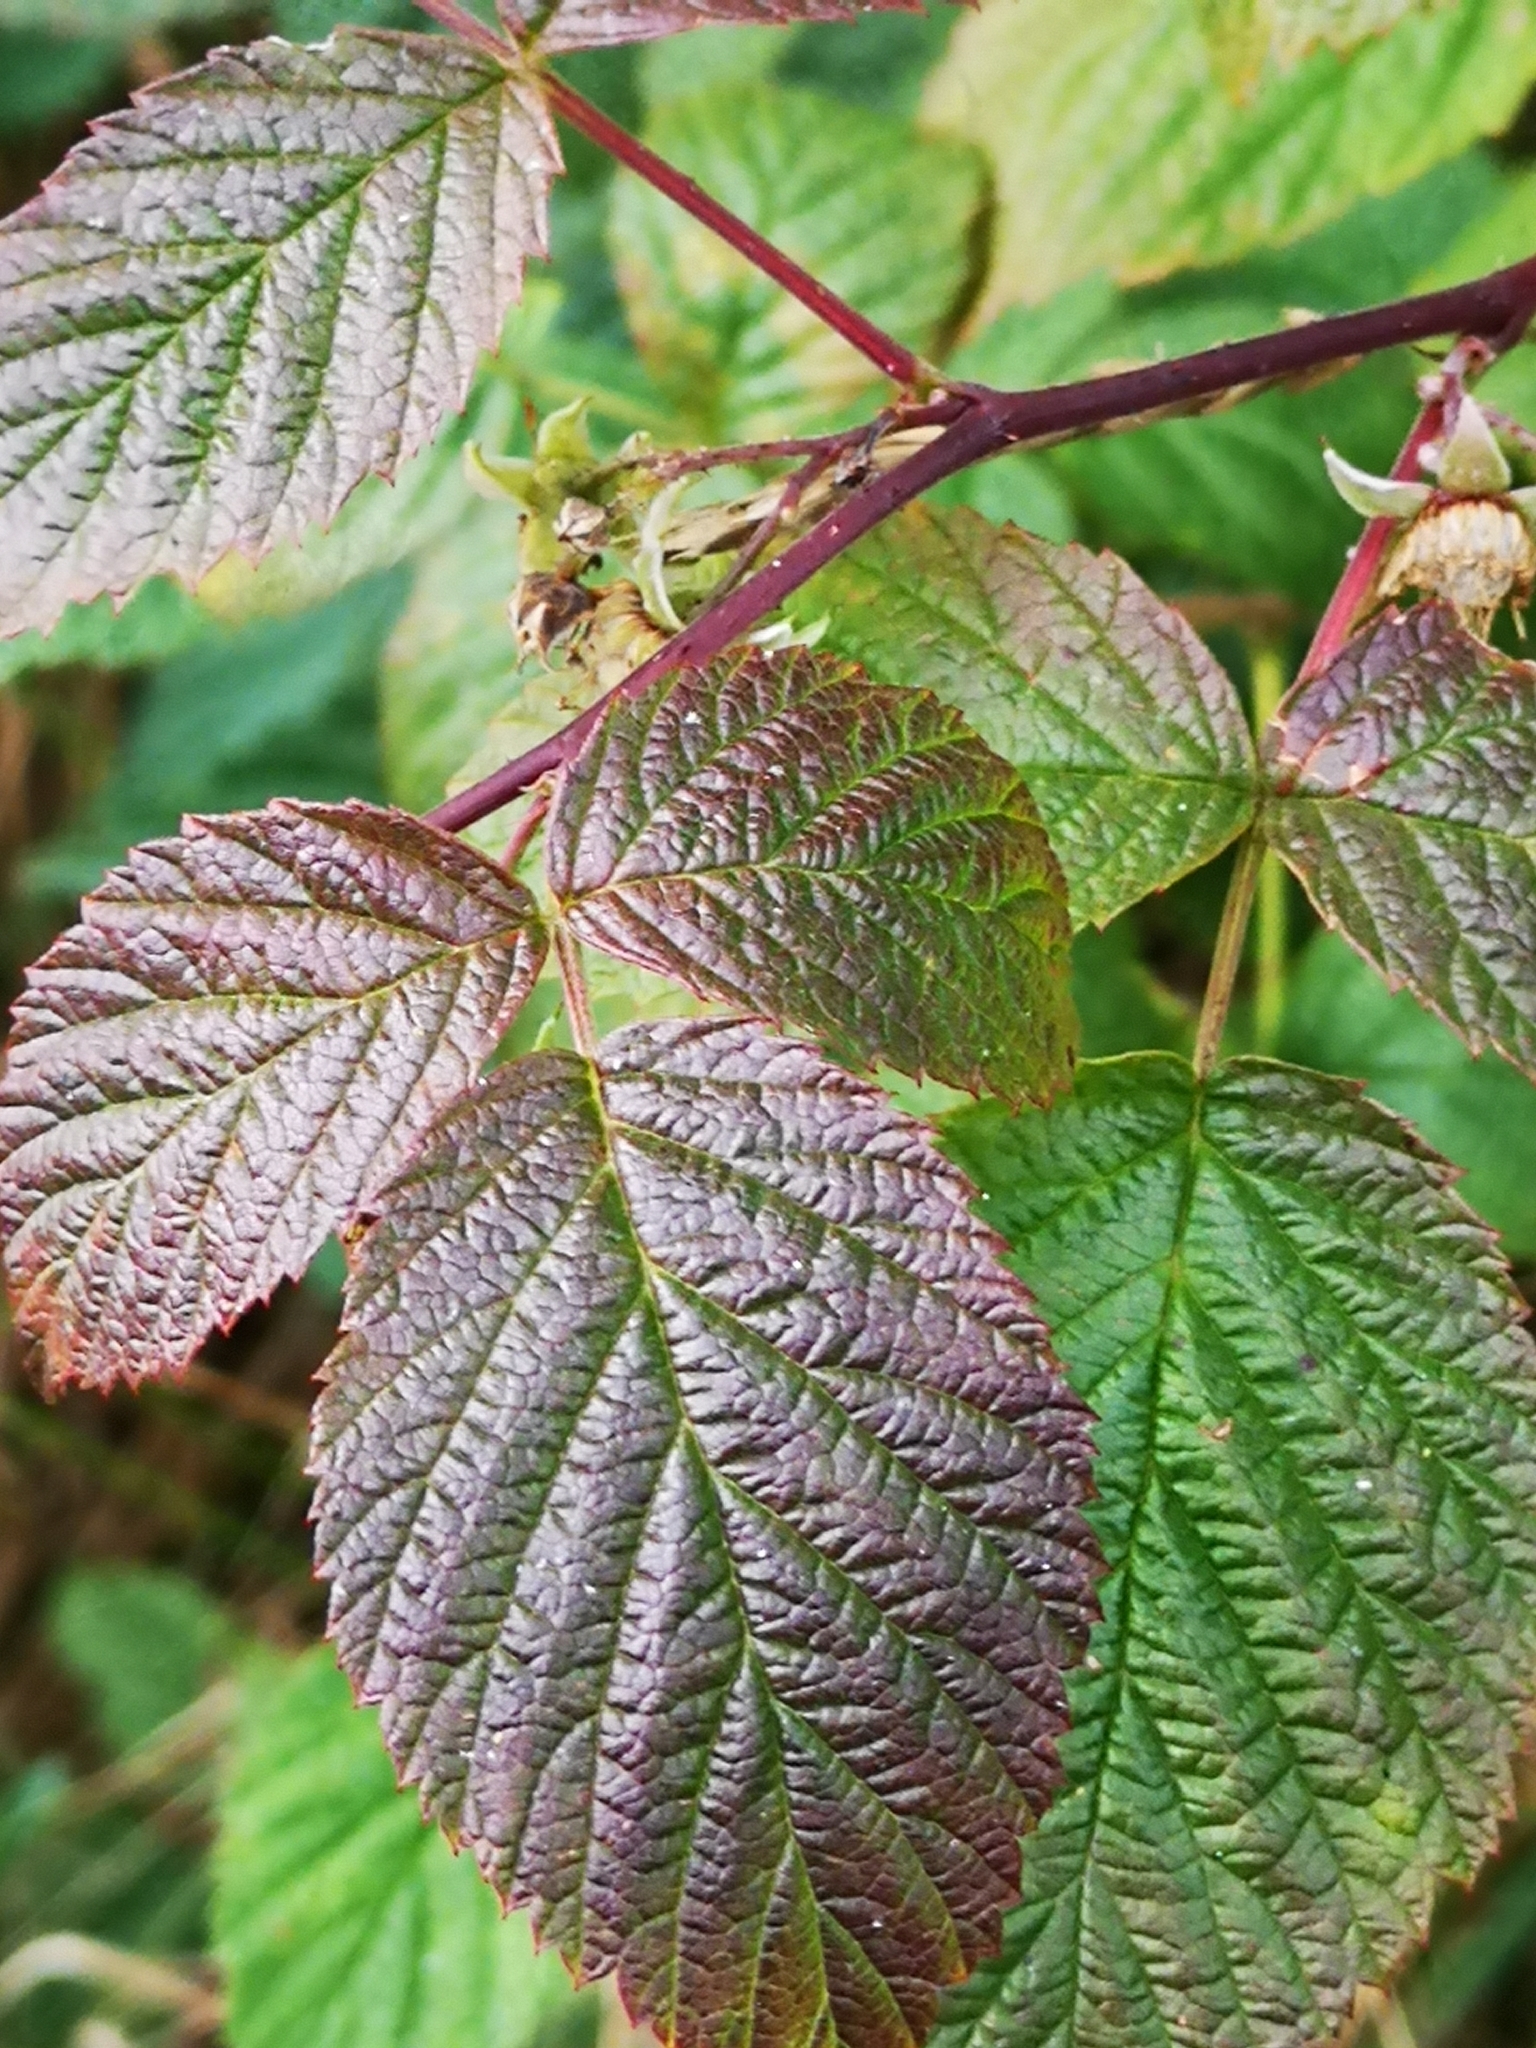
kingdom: Plantae
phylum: Tracheophyta
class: Magnoliopsida
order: Rosales
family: Rosaceae
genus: Rubus
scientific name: Rubus idaeus
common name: Raspberry
